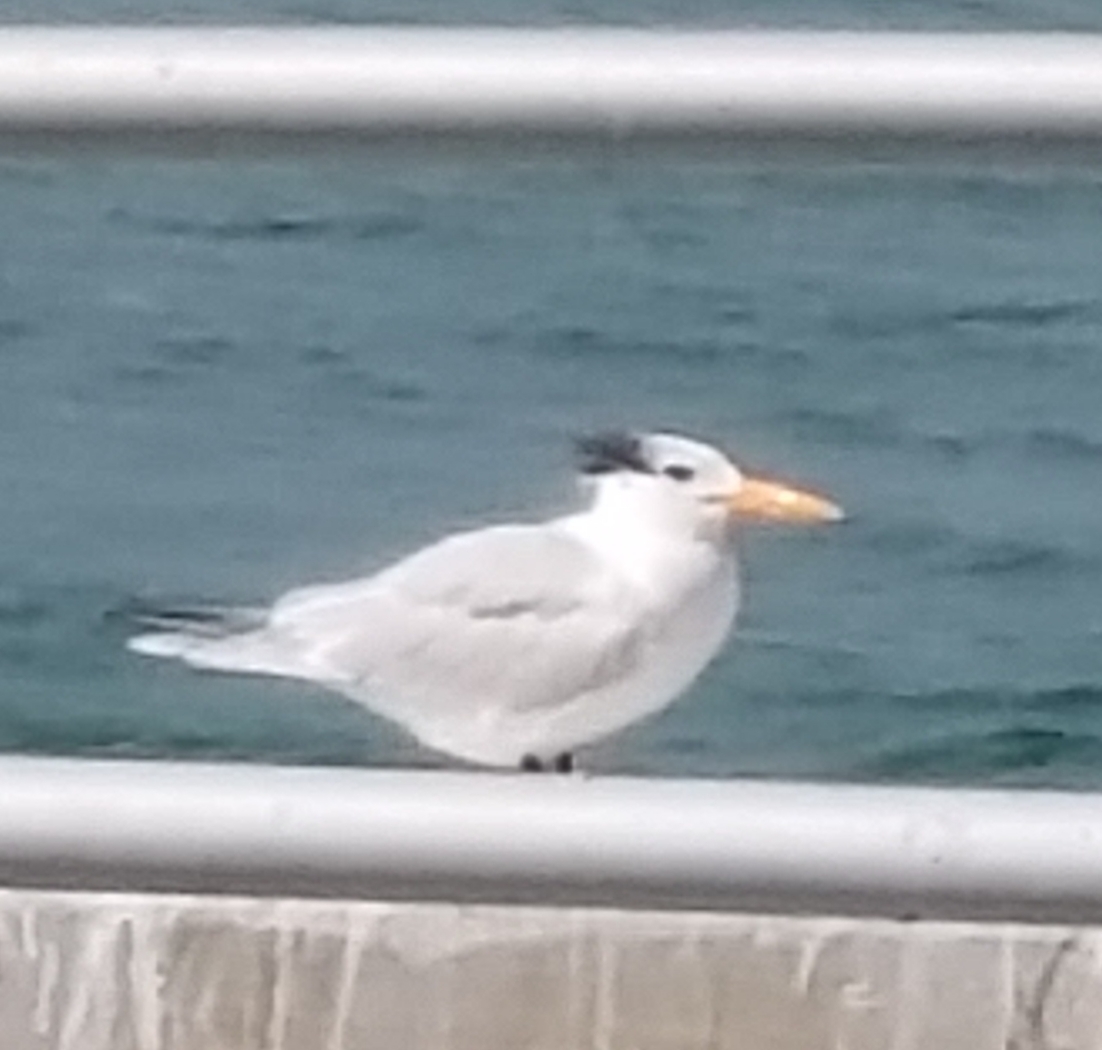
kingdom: Animalia
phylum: Chordata
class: Aves
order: Charadriiformes
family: Laridae
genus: Thalasseus
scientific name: Thalasseus maximus
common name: Royal tern
